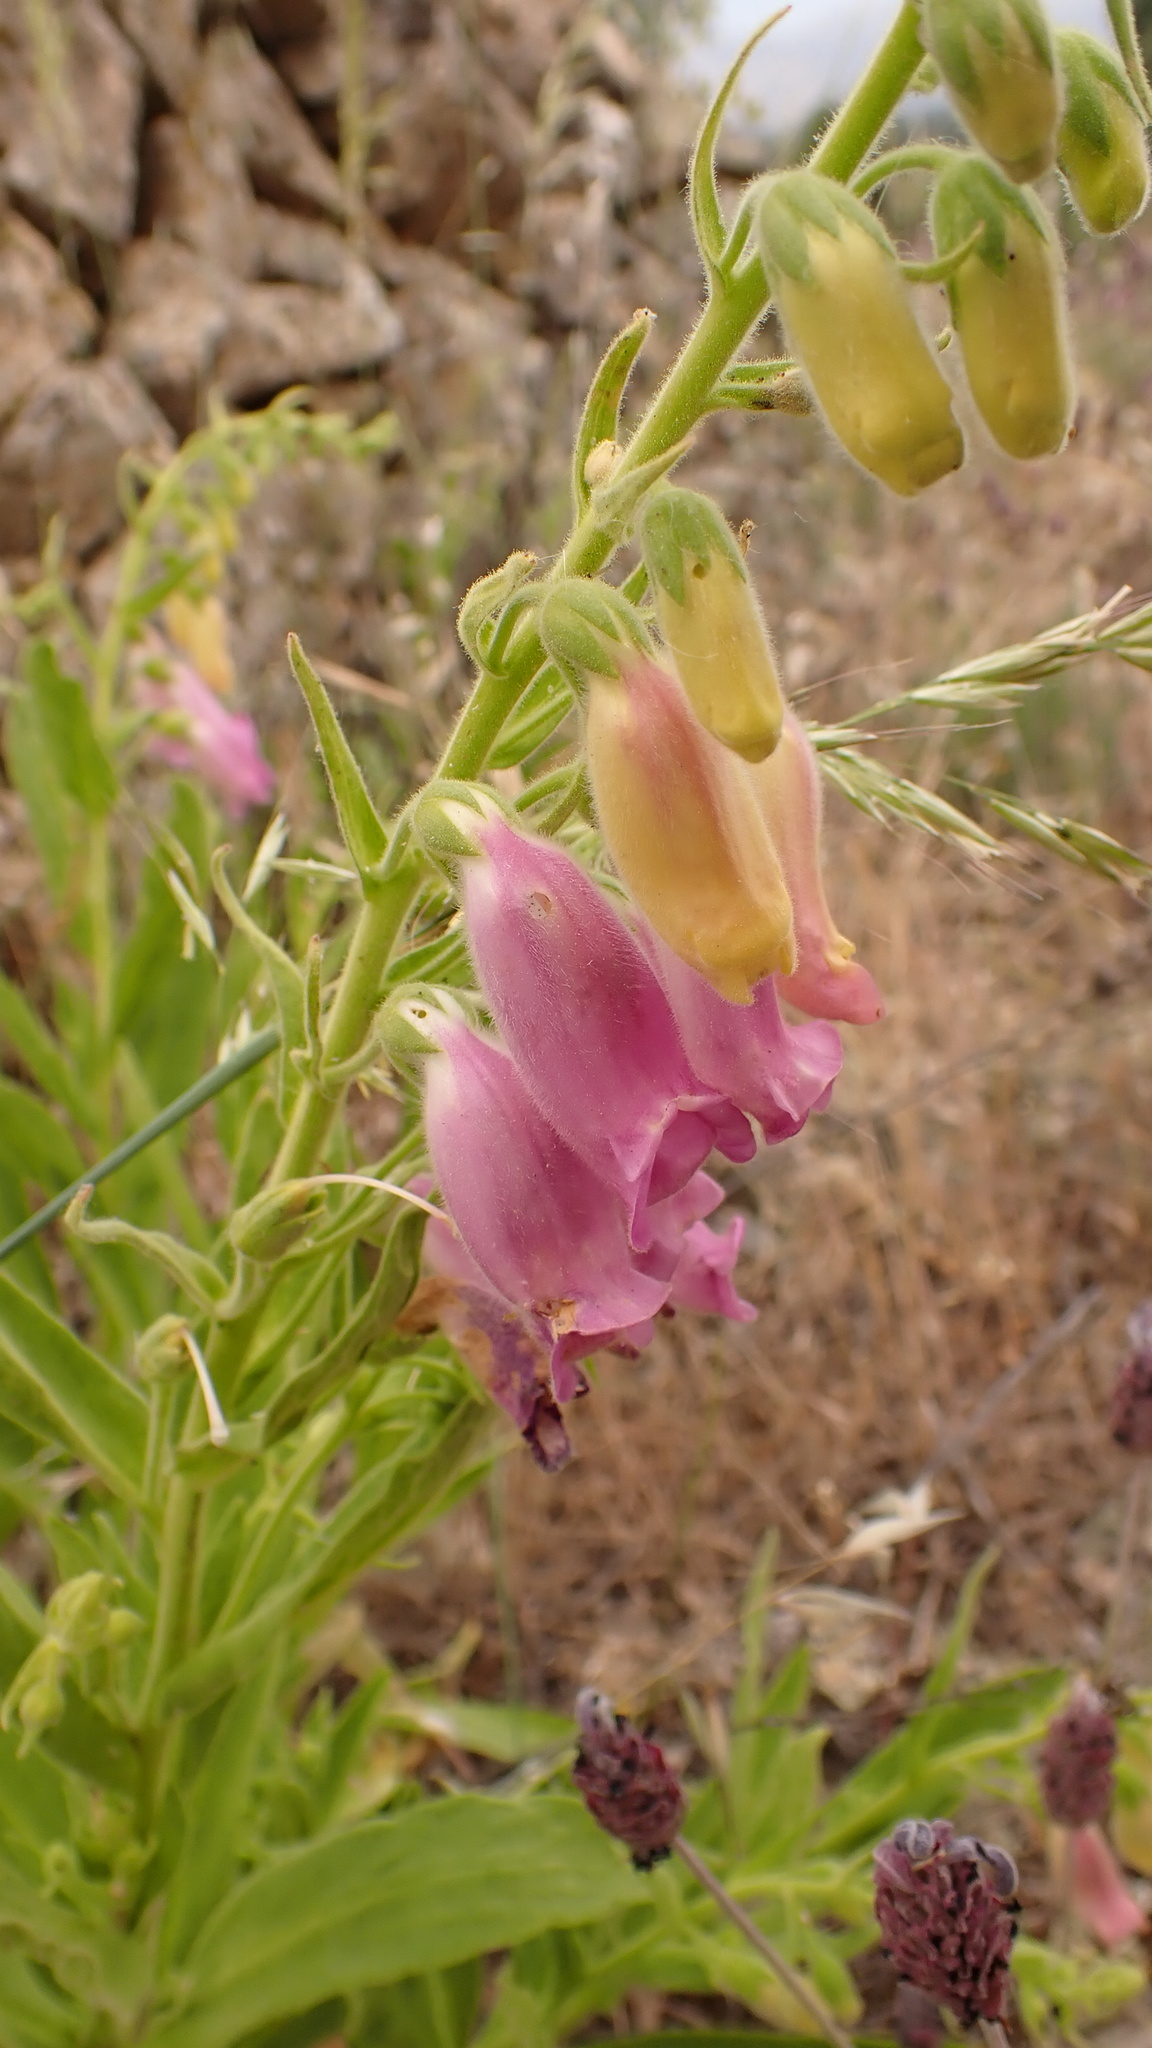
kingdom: Plantae
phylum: Tracheophyta
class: Magnoliopsida
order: Lamiales
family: Plantaginaceae
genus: Digitalis
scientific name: Digitalis thapsi
